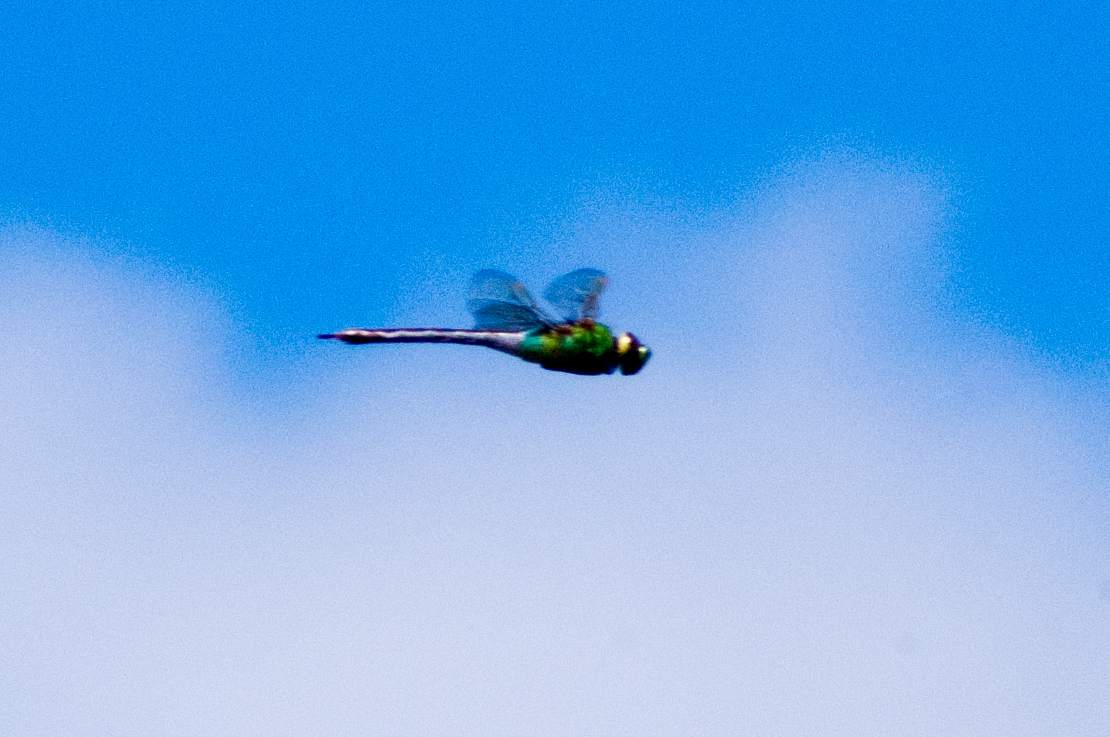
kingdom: Animalia
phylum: Arthropoda
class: Insecta
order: Odonata
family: Aeshnidae
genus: Anax
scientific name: Anax junius
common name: Common green darner
